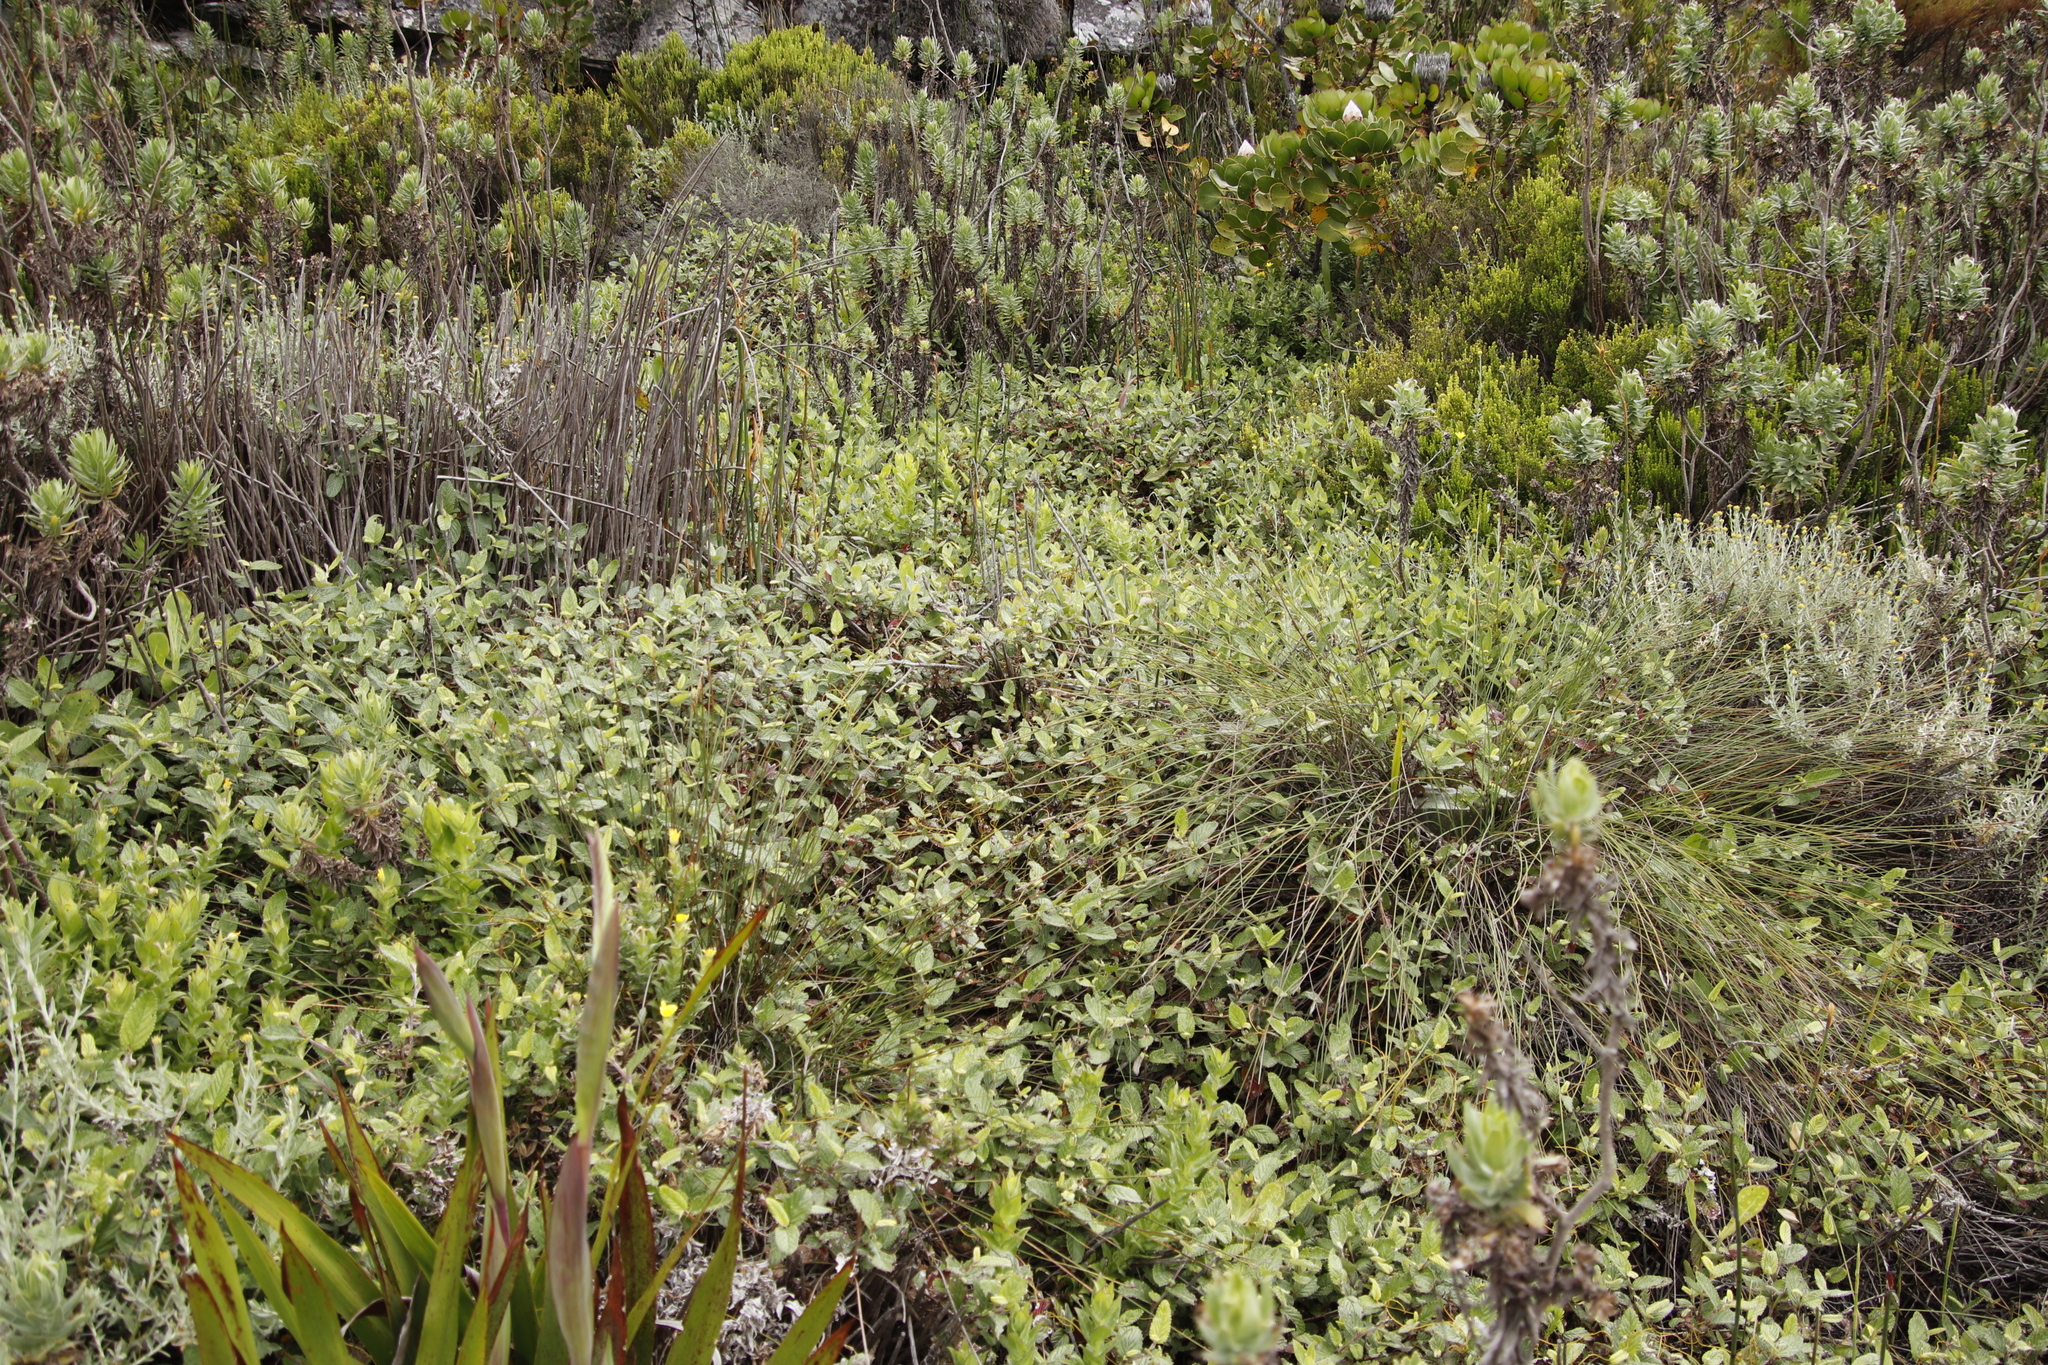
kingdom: Plantae
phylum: Tracheophyta
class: Magnoliopsida
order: Rosales
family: Rosaceae
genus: Cliffortia
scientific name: Cliffortia odorata
